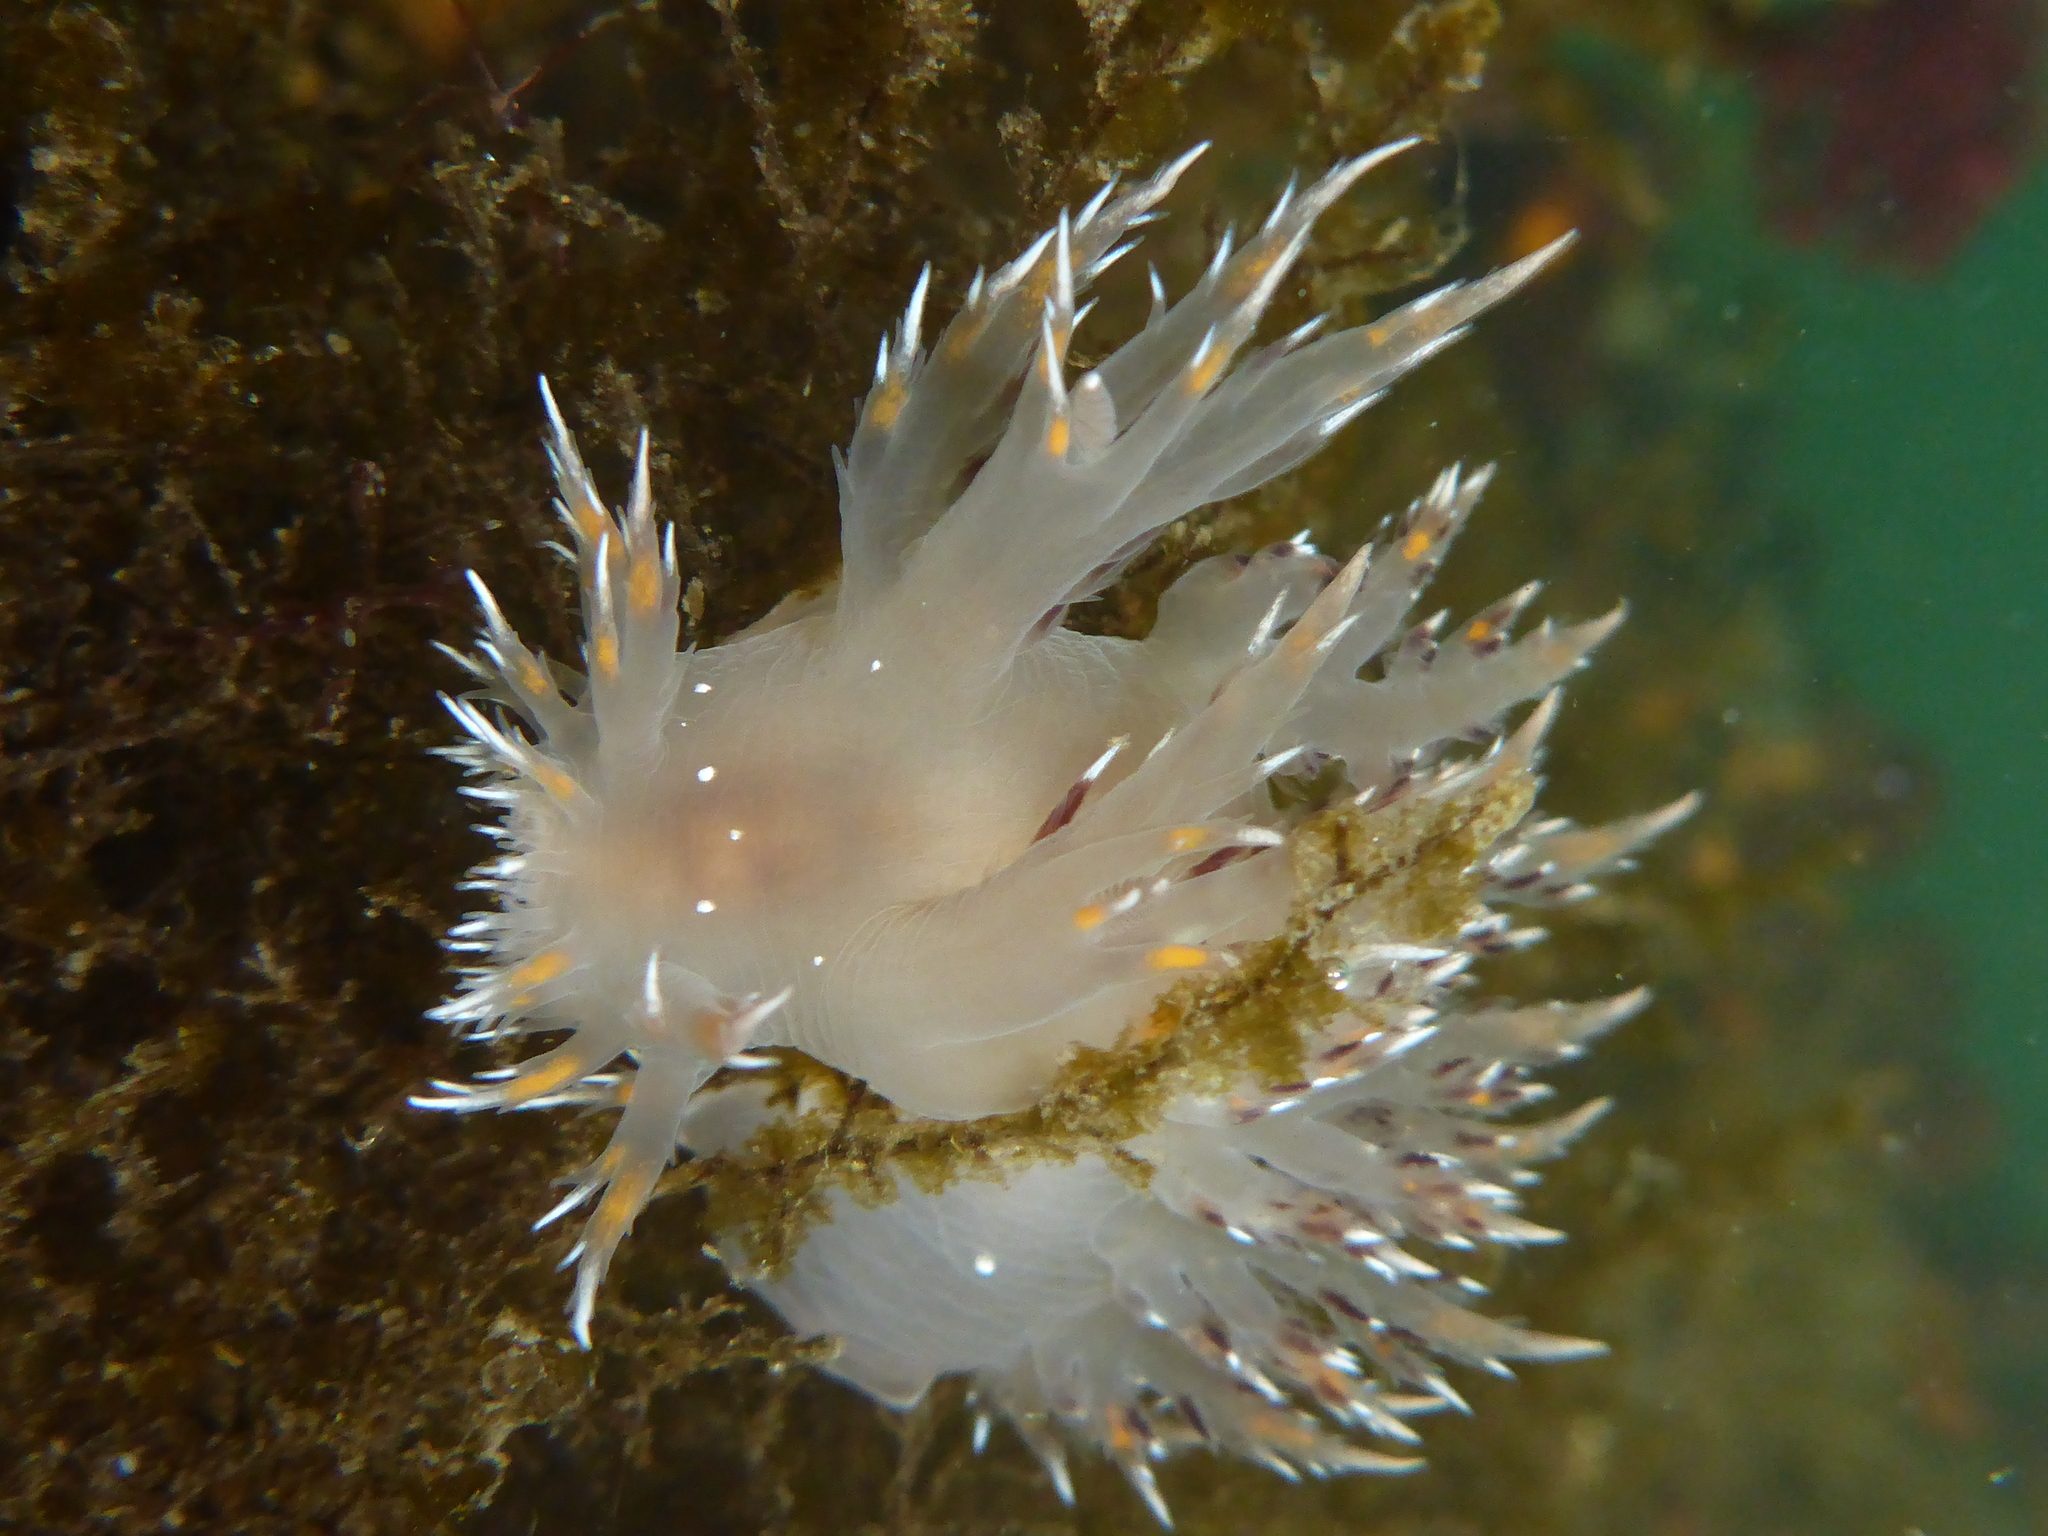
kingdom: Animalia
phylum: Mollusca
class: Gastropoda
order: Nudibranchia
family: Dendronotidae
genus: Dendronotus
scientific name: Dendronotus iris
